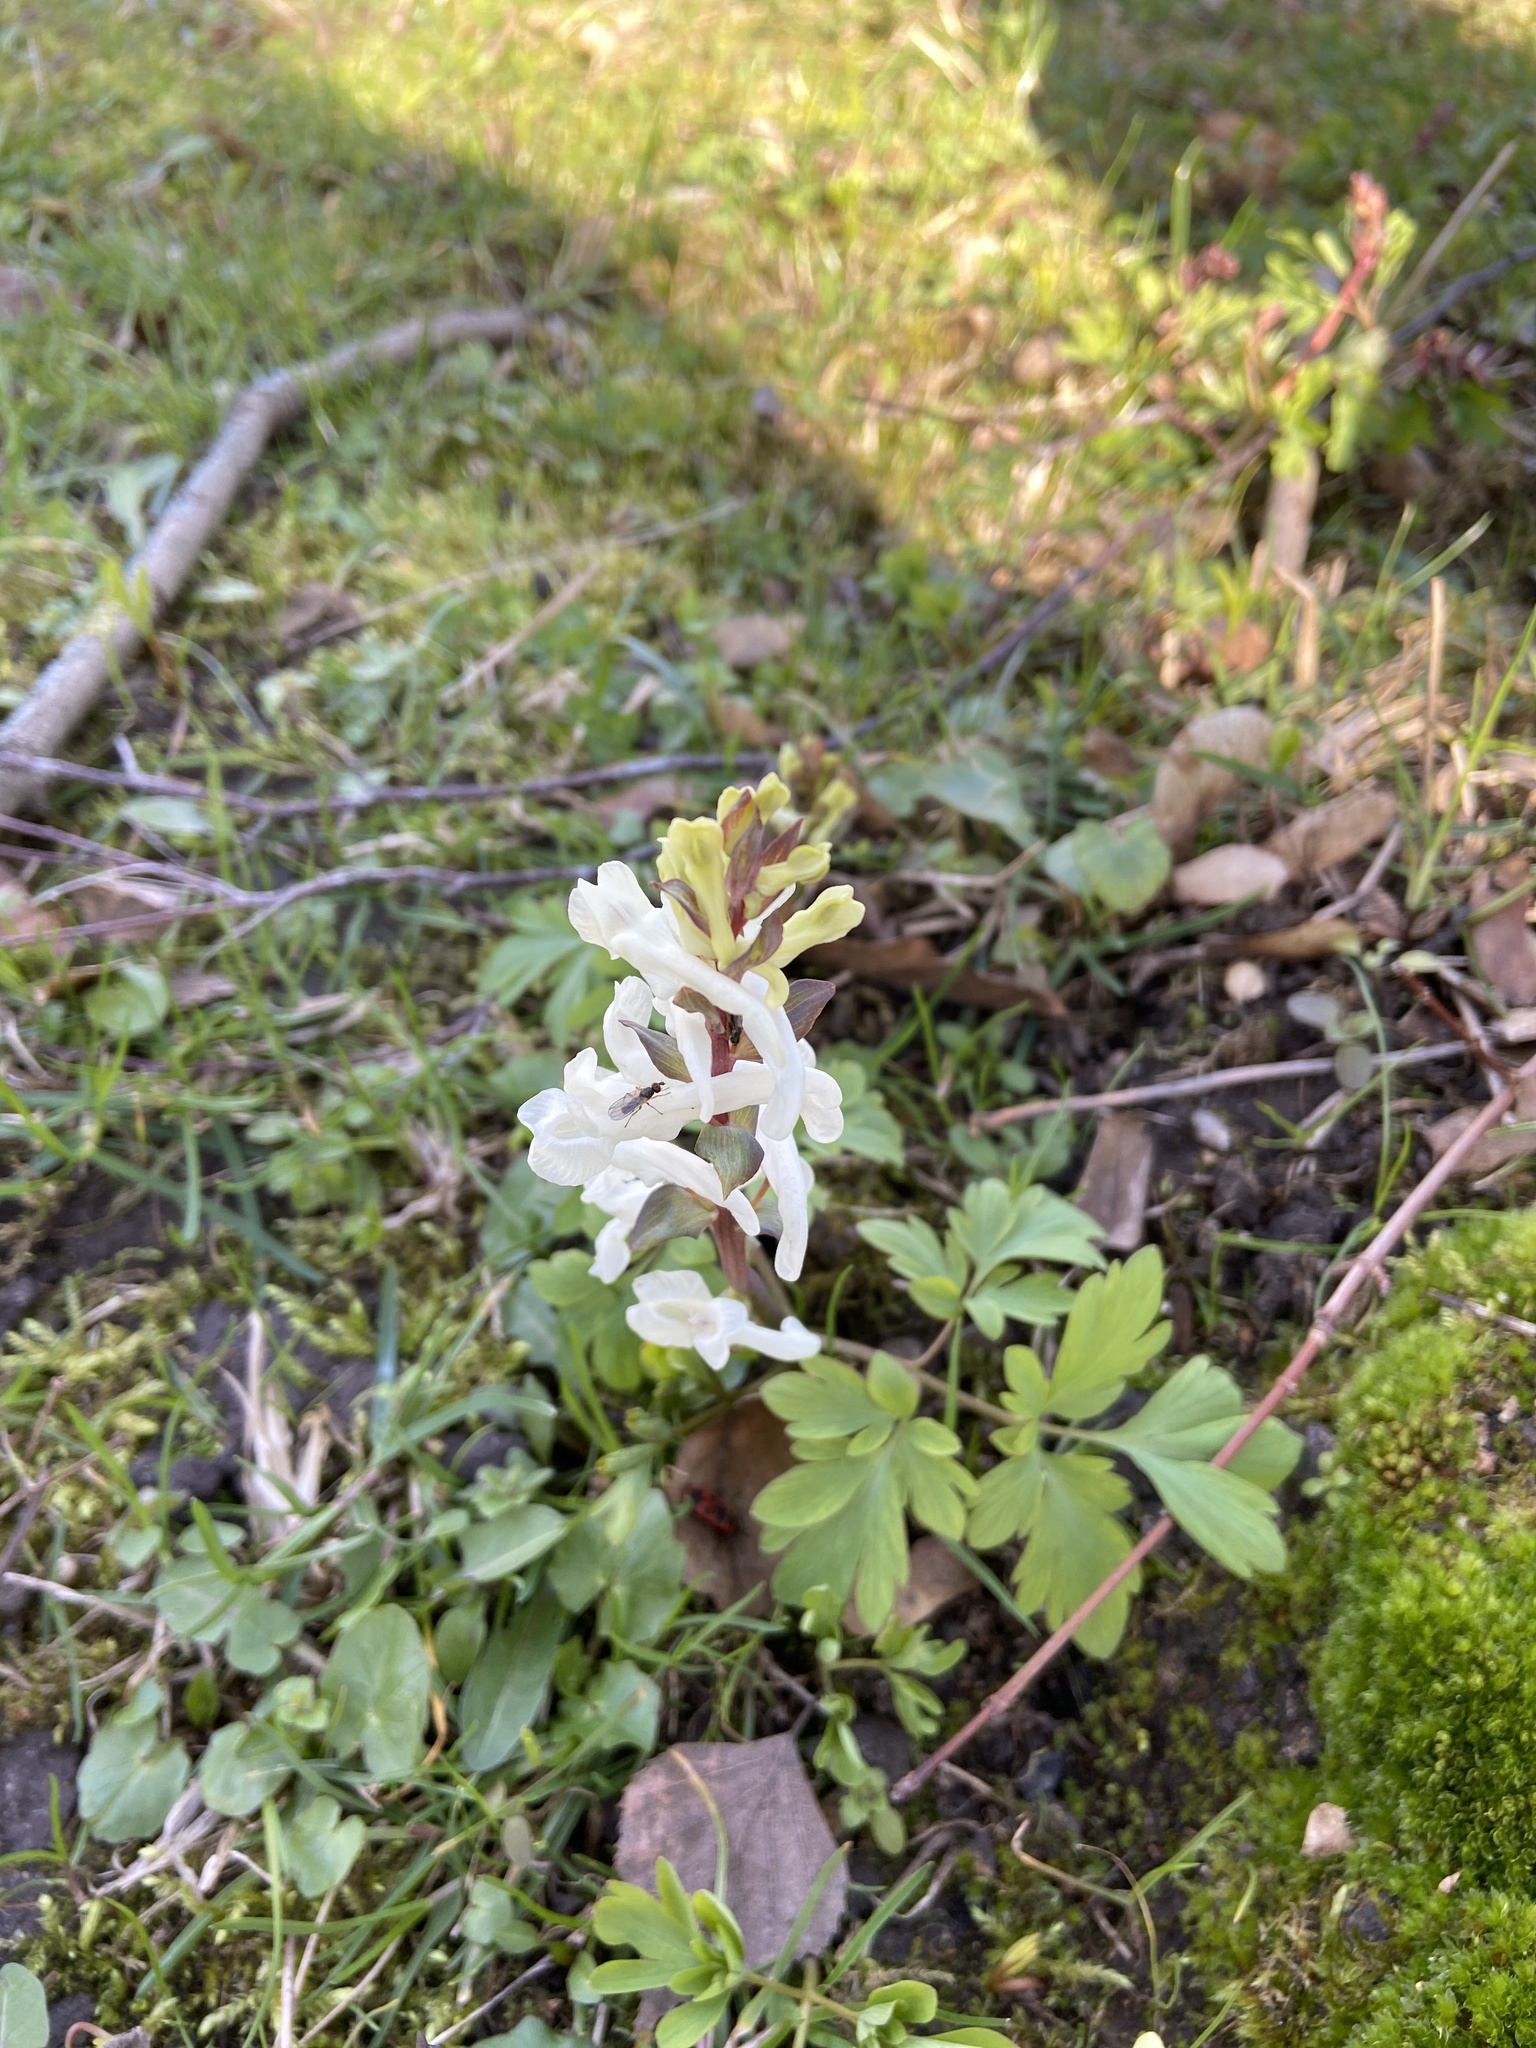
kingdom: Plantae
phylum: Tracheophyta
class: Magnoliopsida
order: Ranunculales
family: Papaveraceae
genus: Corydalis
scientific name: Corydalis cava
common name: Hollowroot
